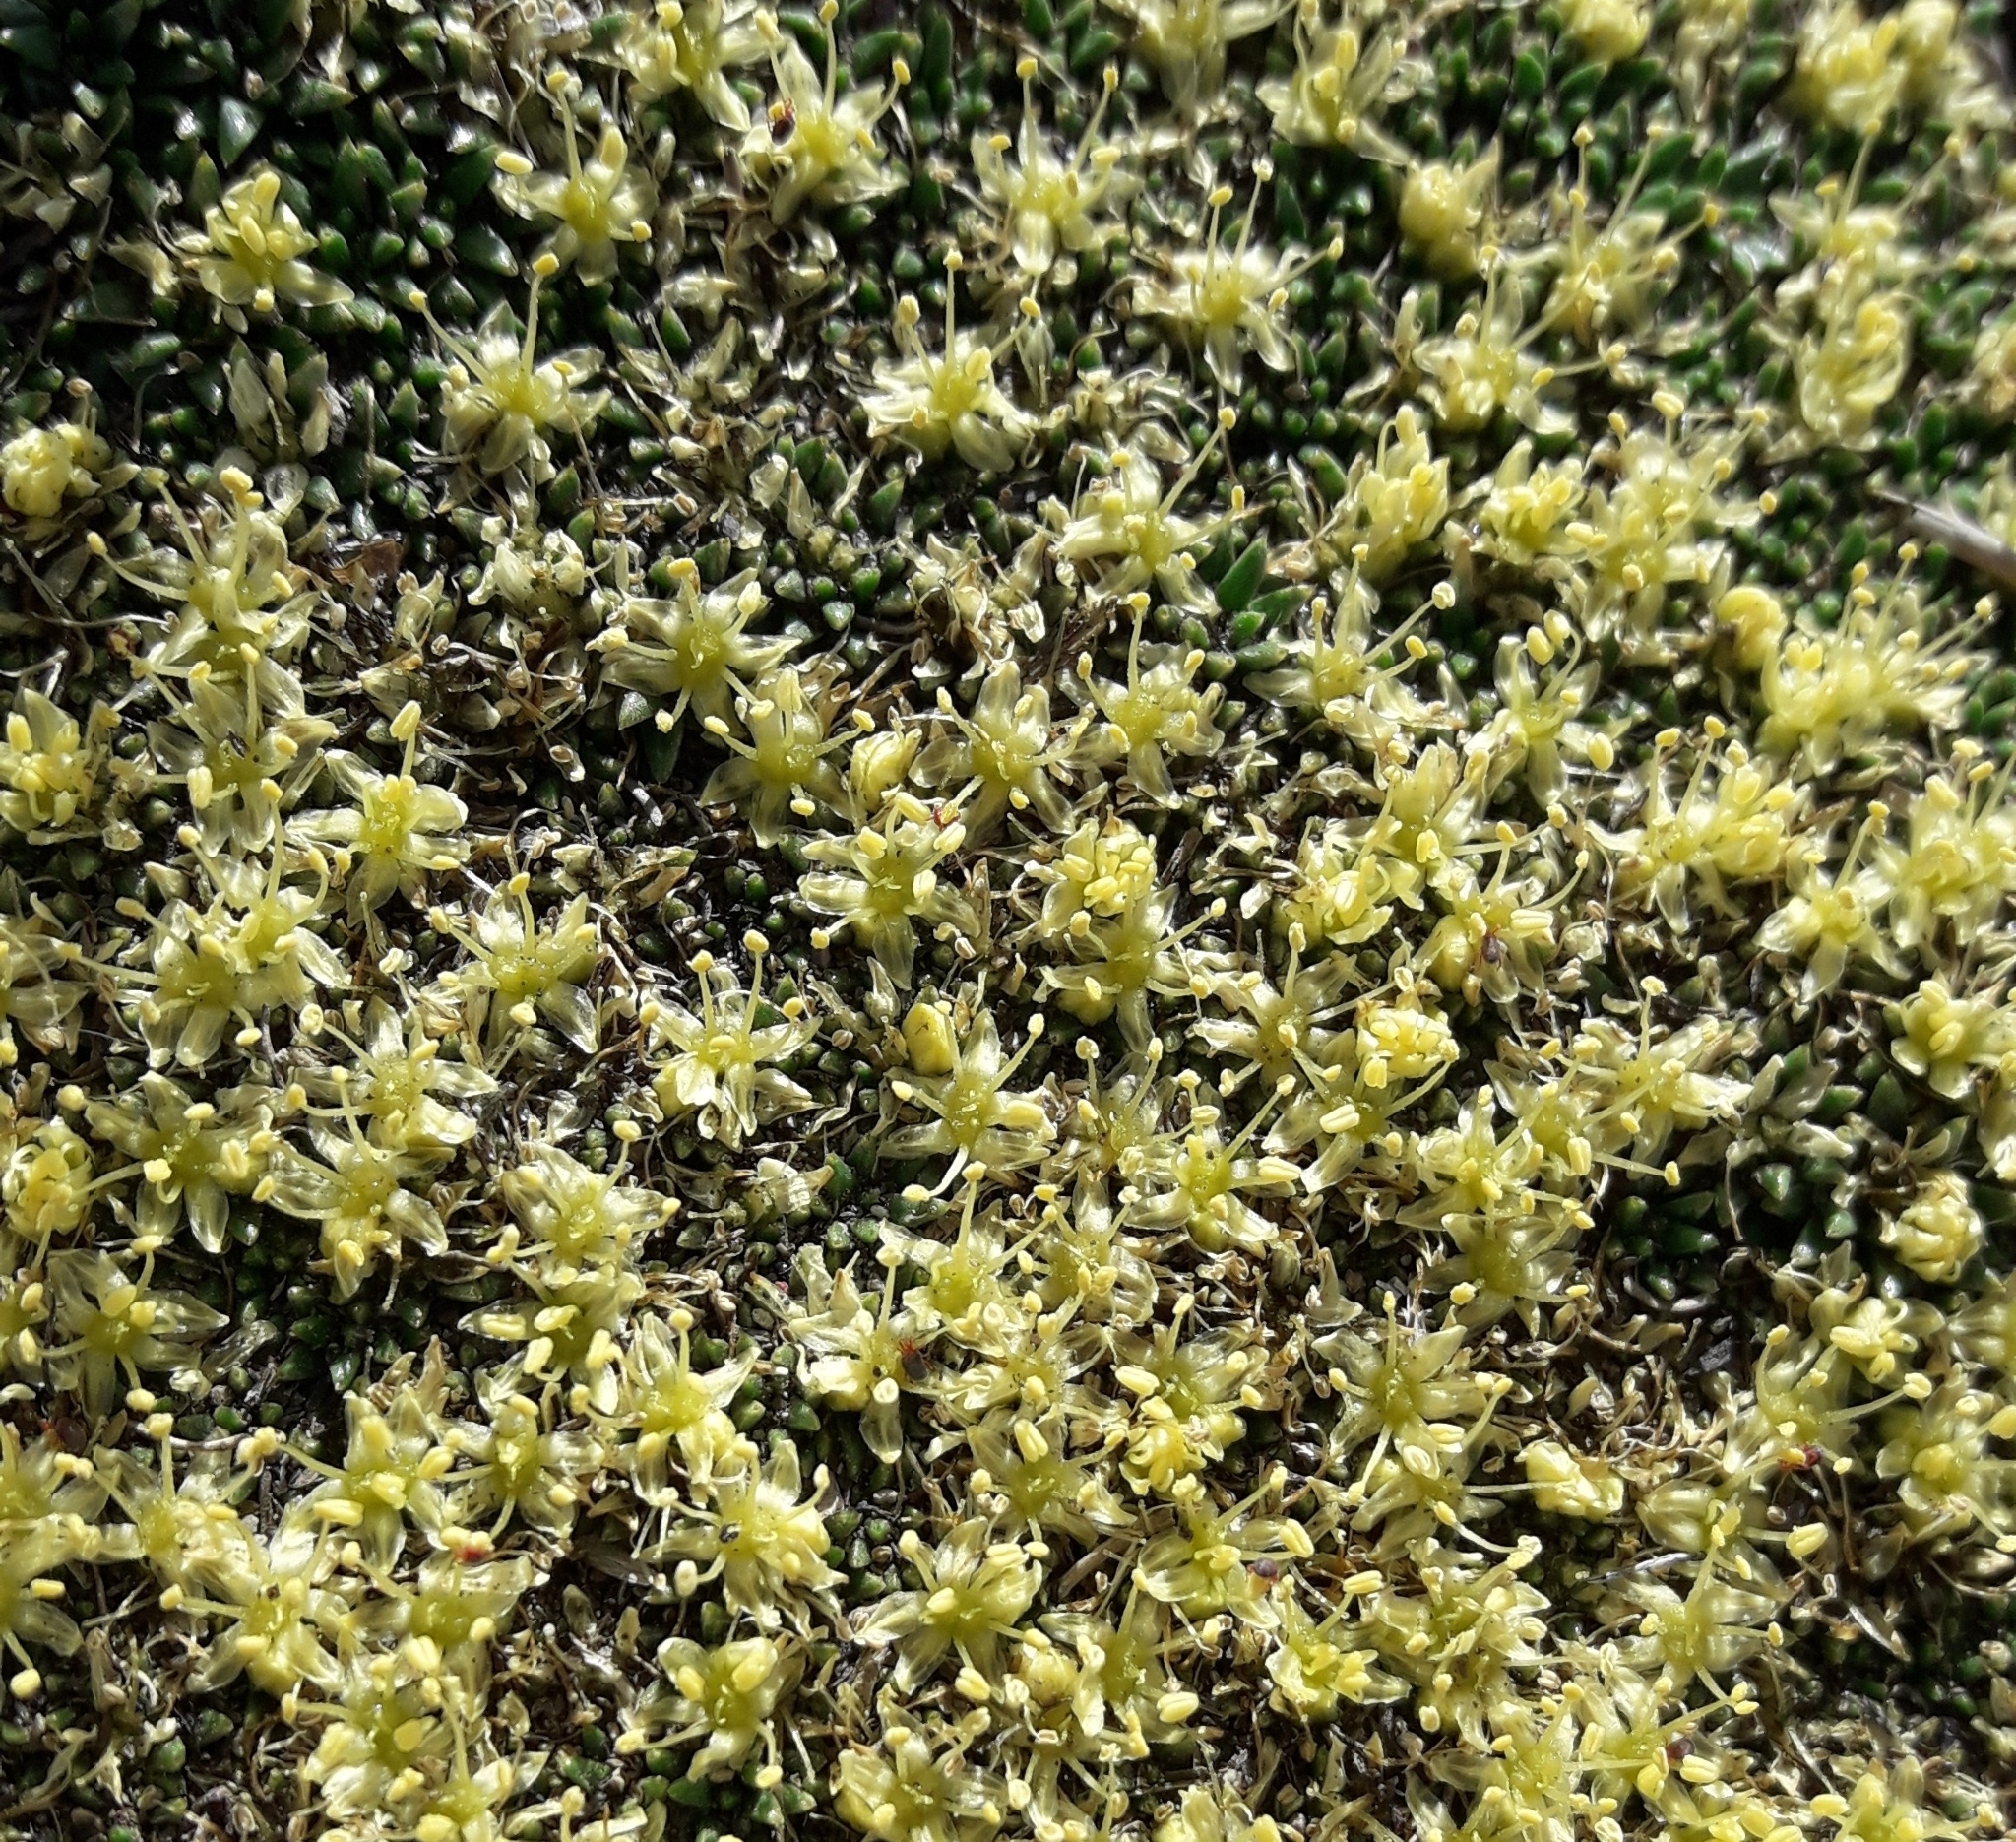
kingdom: Plantae
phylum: Tracheophyta
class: Magnoliopsida
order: Apiales
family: Apiaceae
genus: Azorella
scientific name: Azorella monantha
